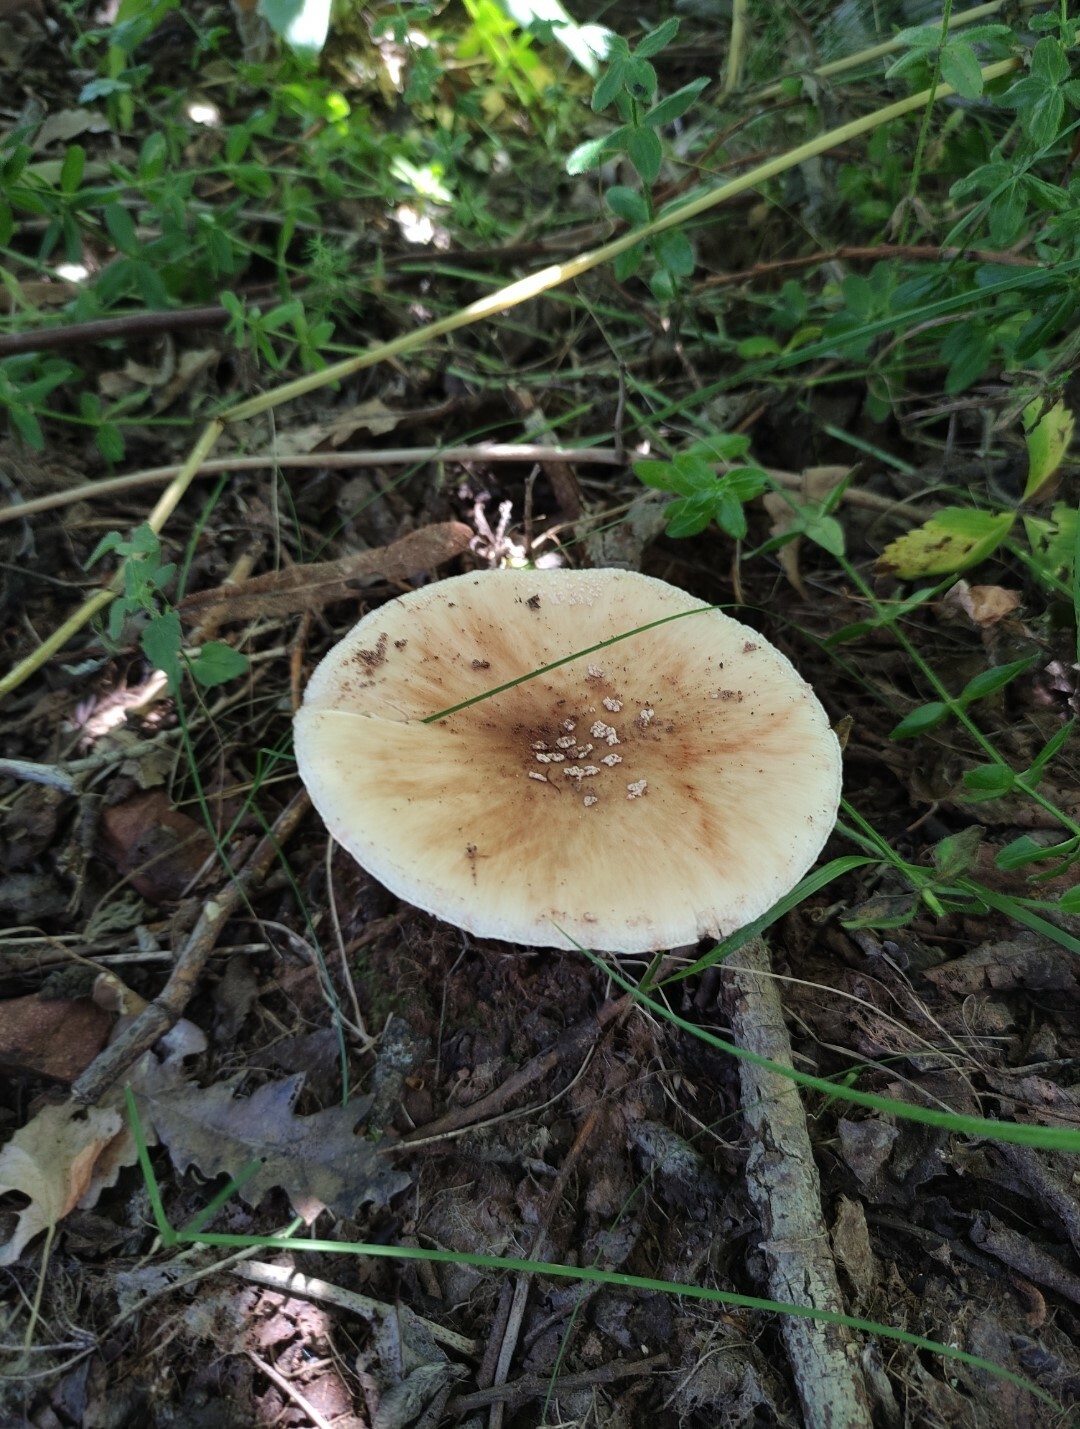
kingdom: Fungi
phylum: Basidiomycota
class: Agaricomycetes
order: Agaricales
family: Amanitaceae
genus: Amanita
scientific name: Amanita rubescens
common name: Blusher
